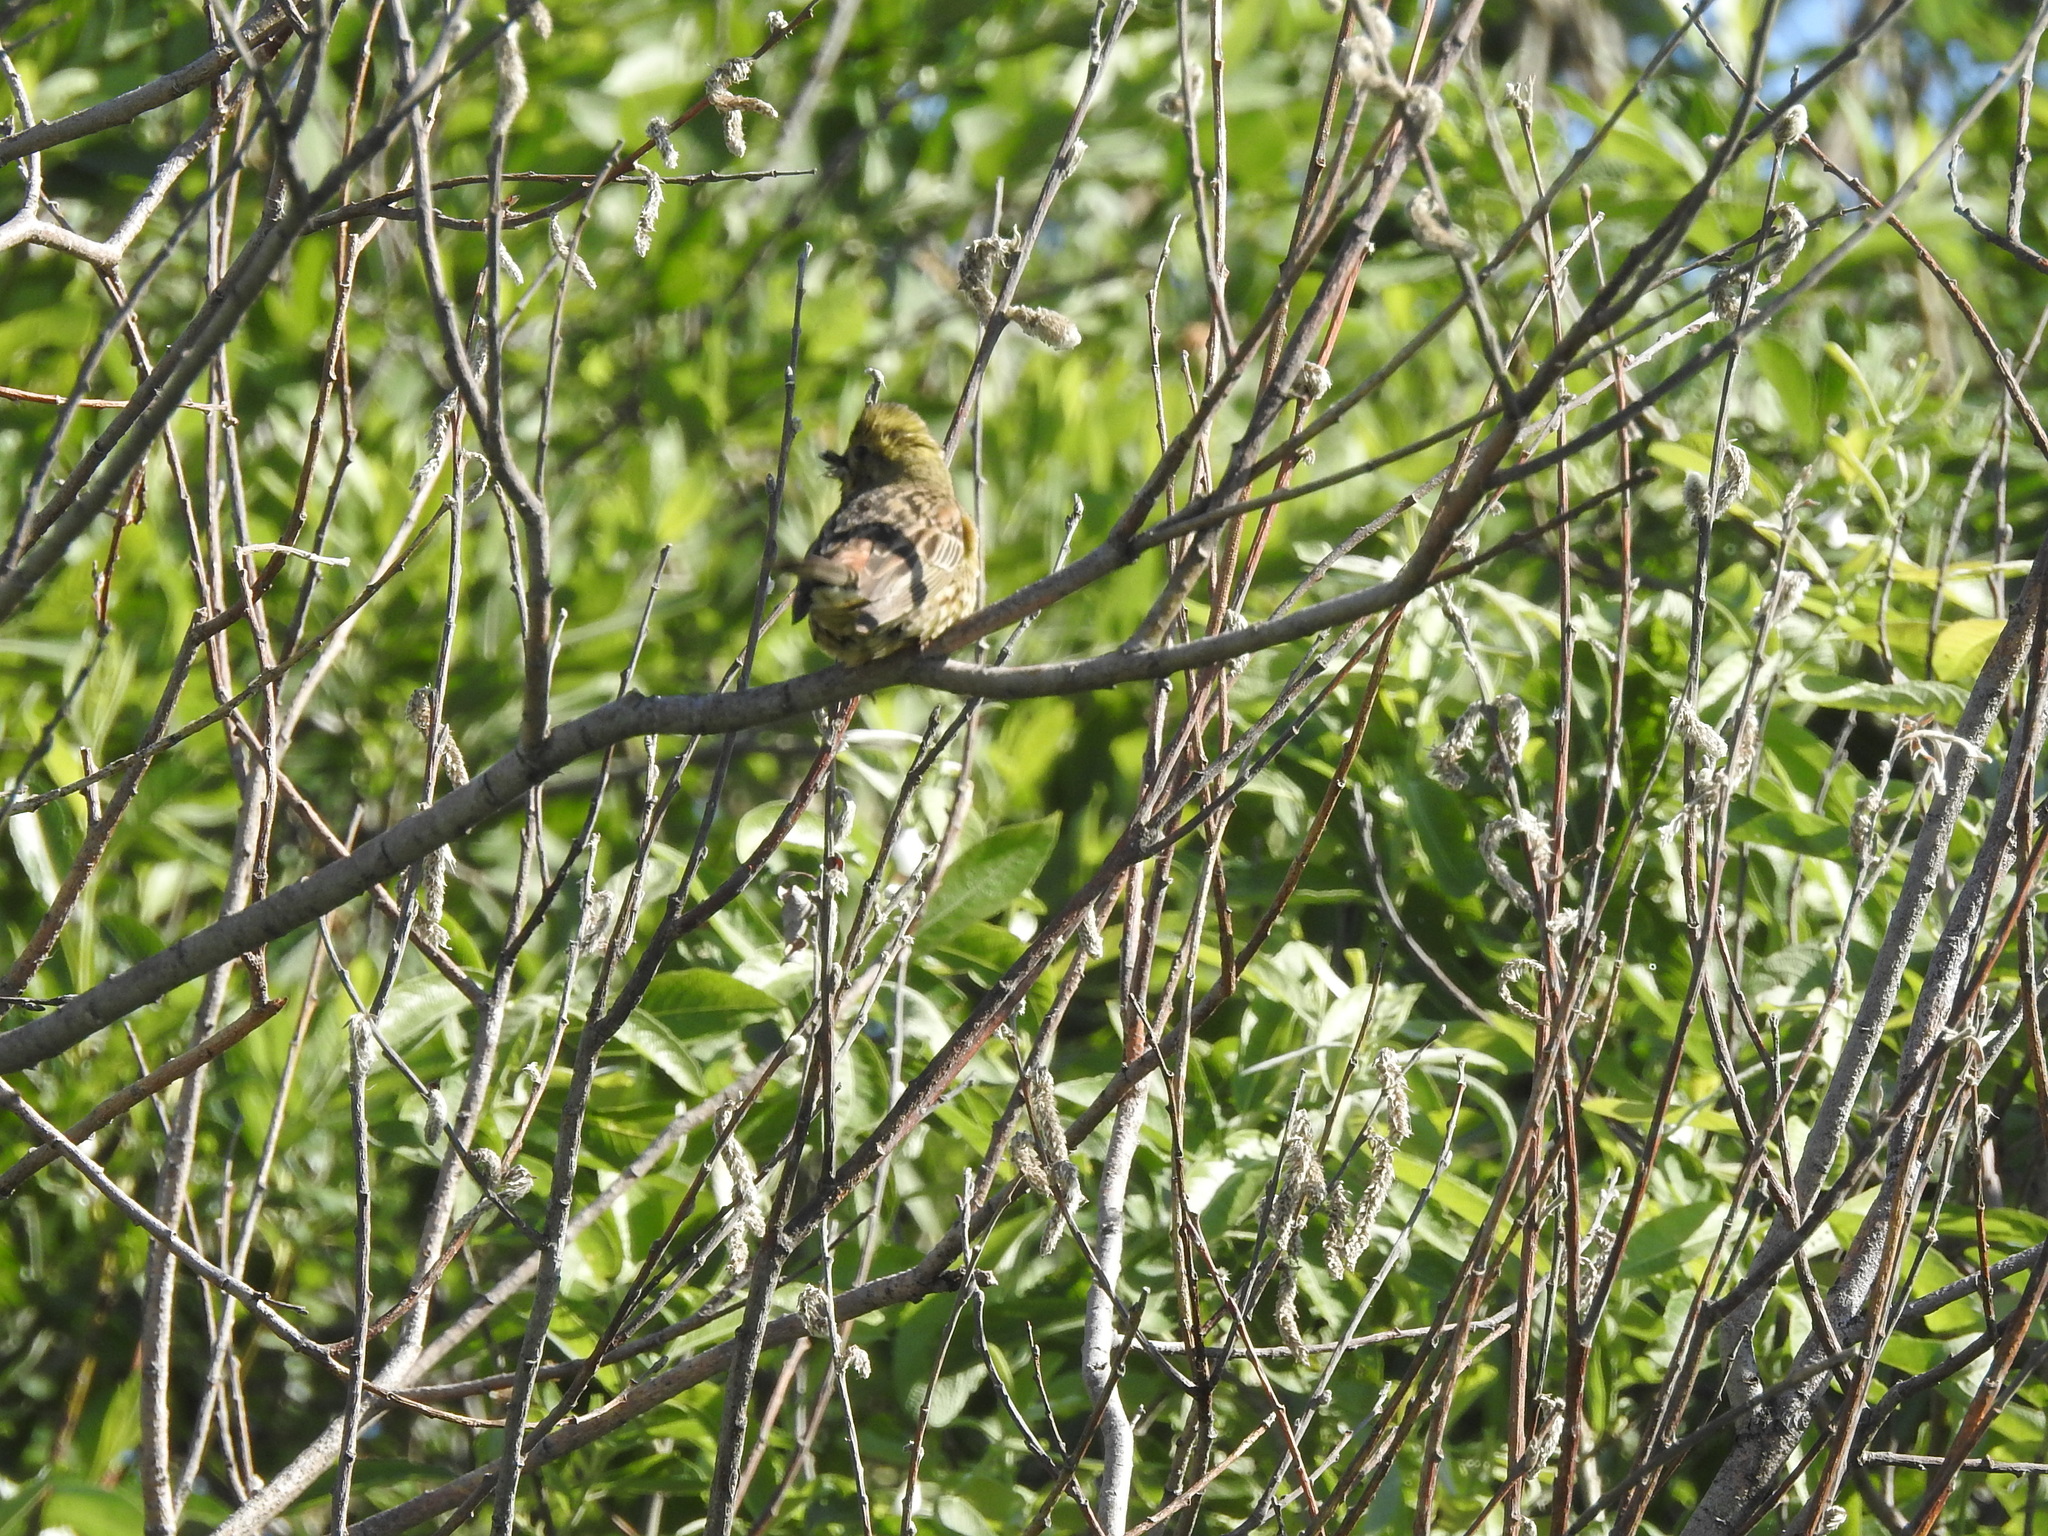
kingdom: Animalia
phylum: Chordata
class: Aves
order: Passeriformes
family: Emberizidae
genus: Emberiza
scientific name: Emberiza citrinella
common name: Yellowhammer
